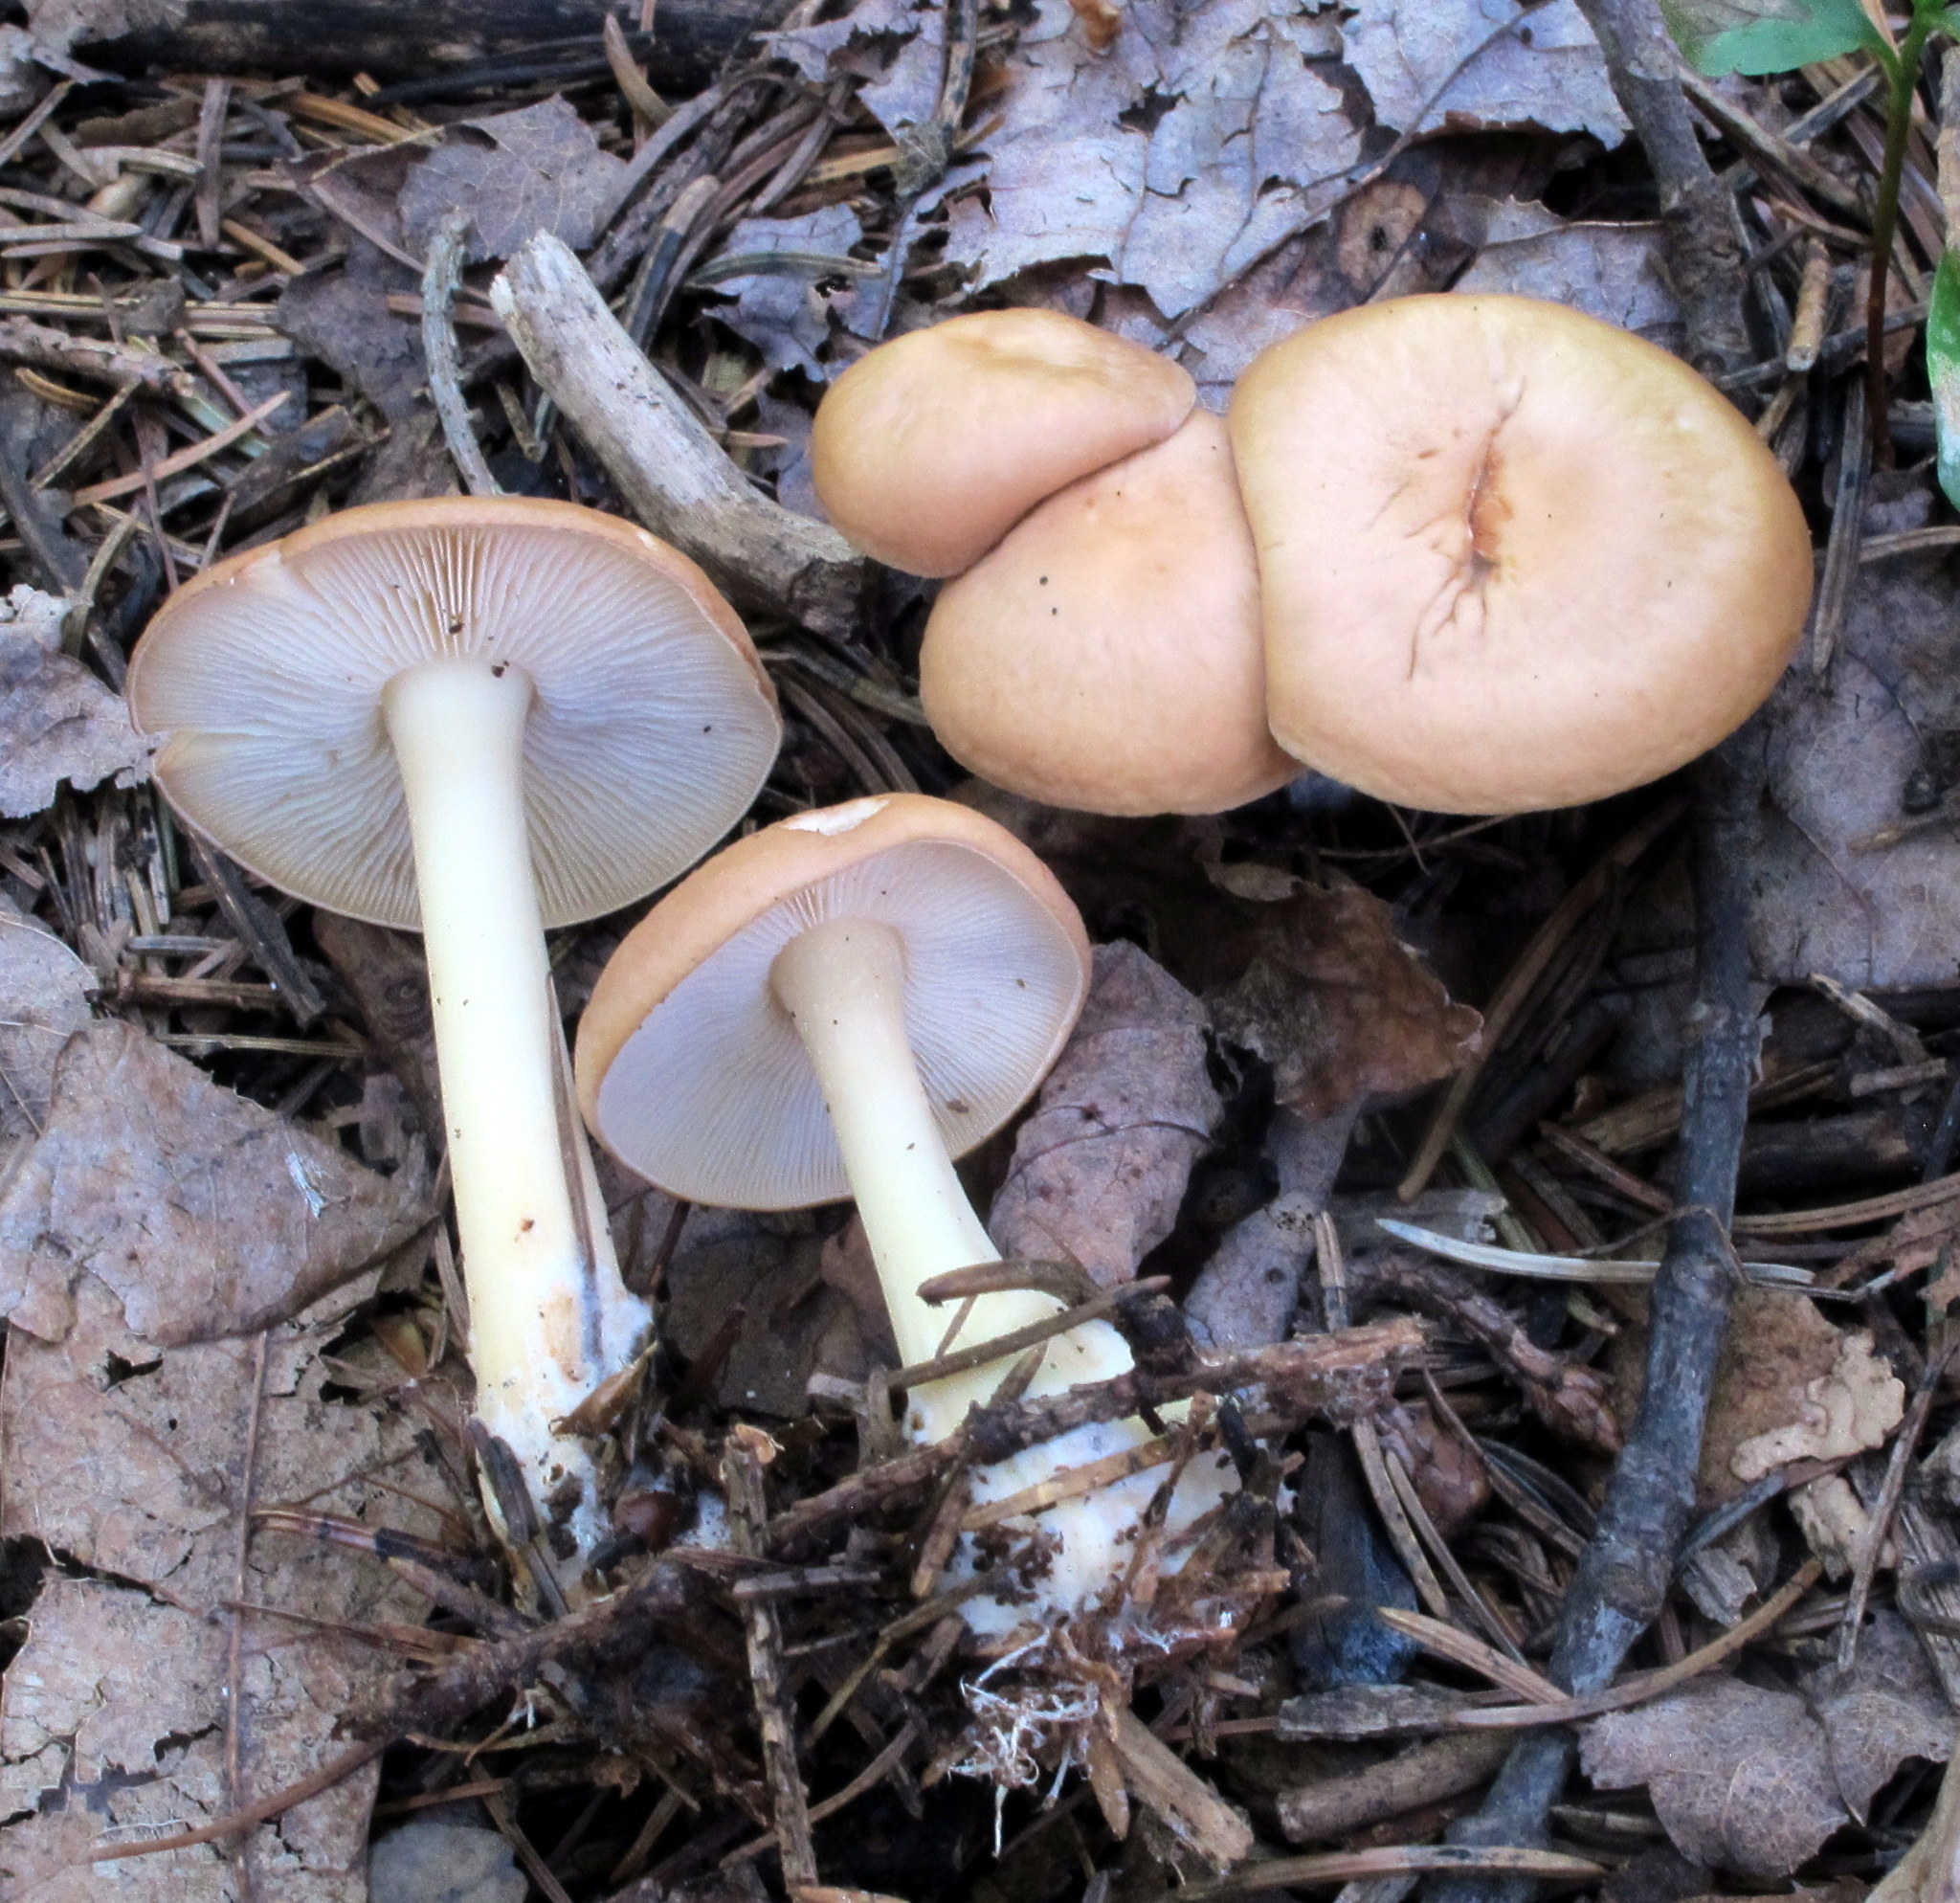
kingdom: Fungi
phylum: Basidiomycota
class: Agaricomycetes
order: Agaricales
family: Omphalotaceae
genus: Gymnopus
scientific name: Gymnopus dryophilus
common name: Penny top
